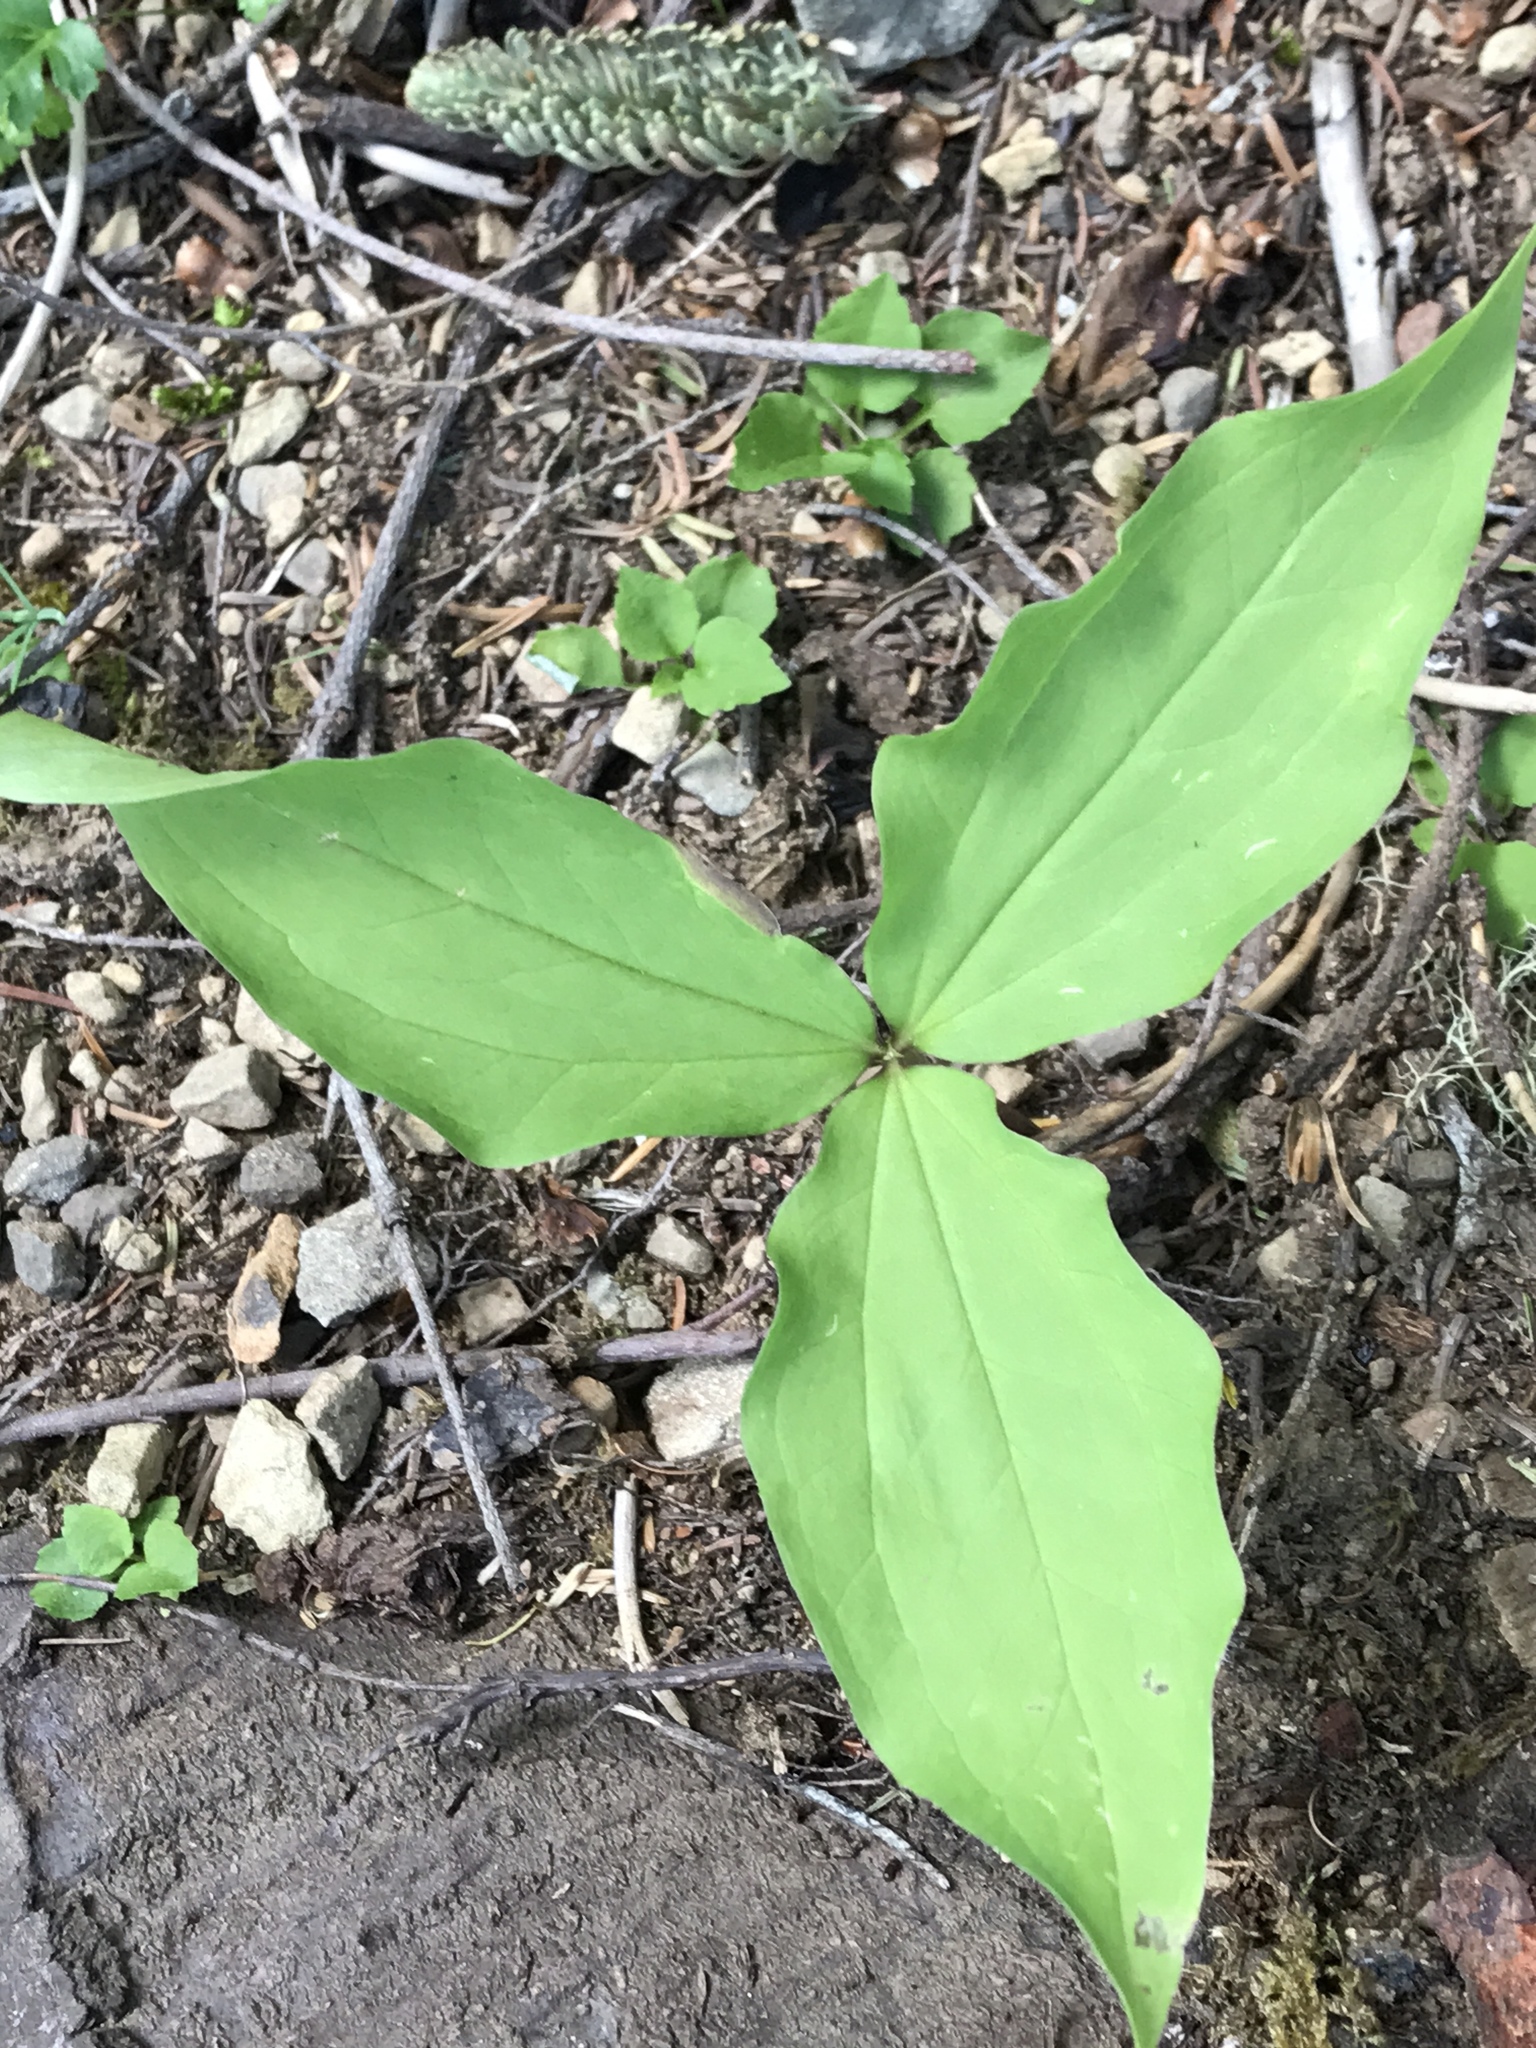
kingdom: Plantae
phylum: Tracheophyta
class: Liliopsida
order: Liliales
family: Melanthiaceae
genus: Trillium
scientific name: Trillium ovatum
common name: Pacific trillium
